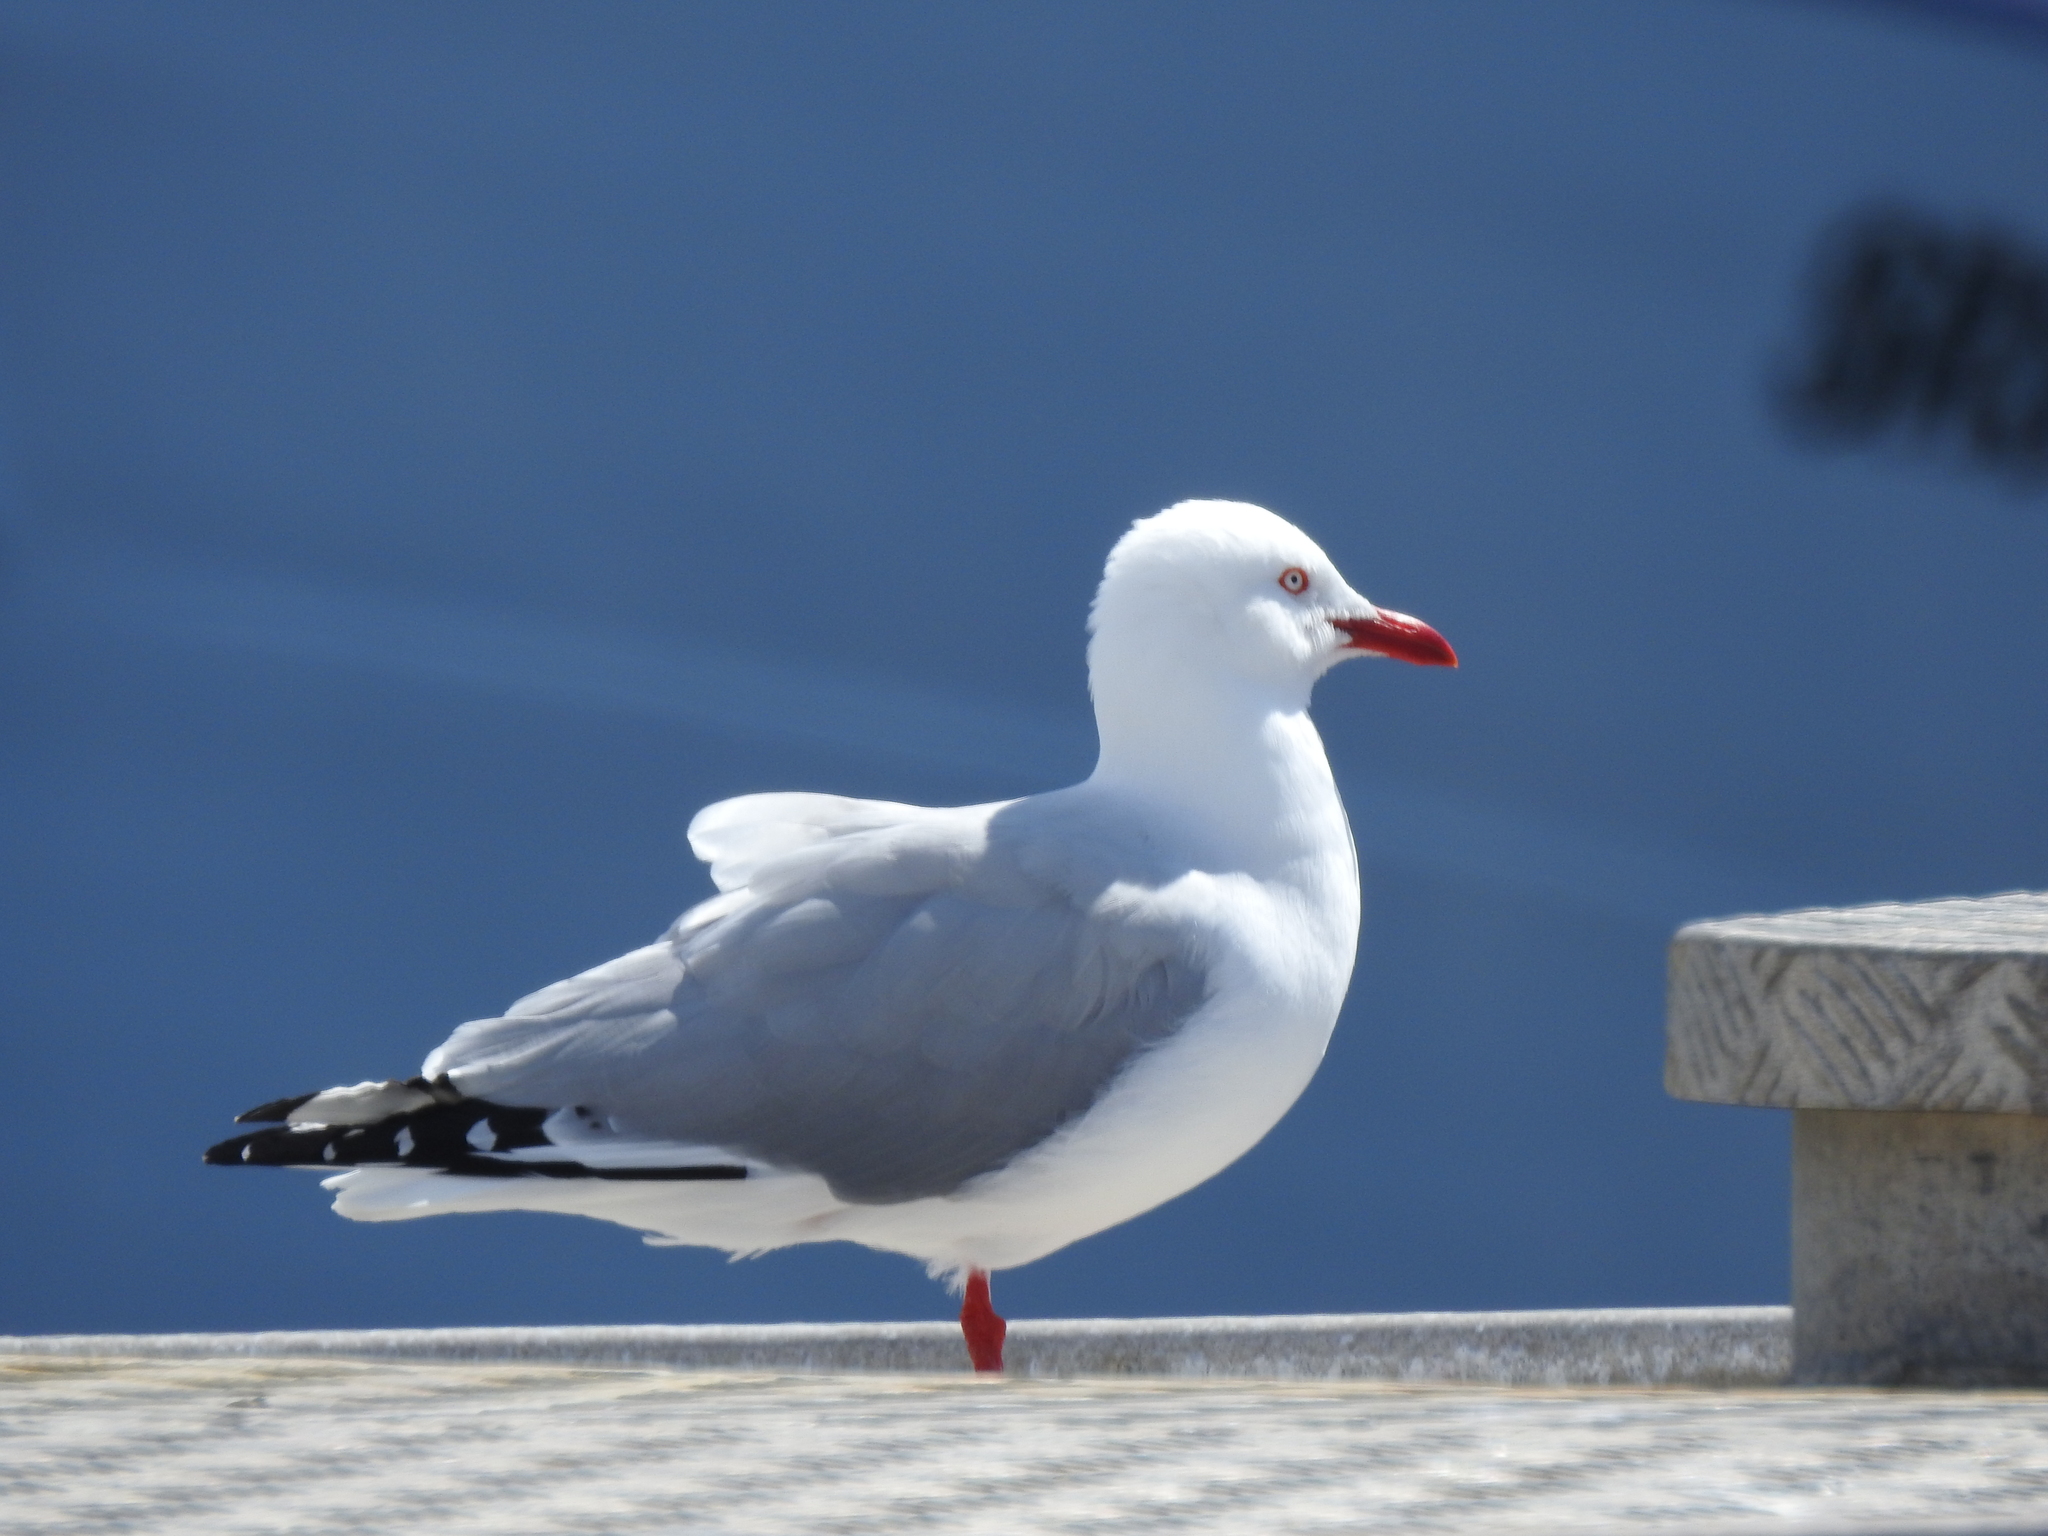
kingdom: Animalia
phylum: Chordata
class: Aves
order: Charadriiformes
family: Laridae
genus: Chroicocephalus
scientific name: Chroicocephalus novaehollandiae
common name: Silver gull
